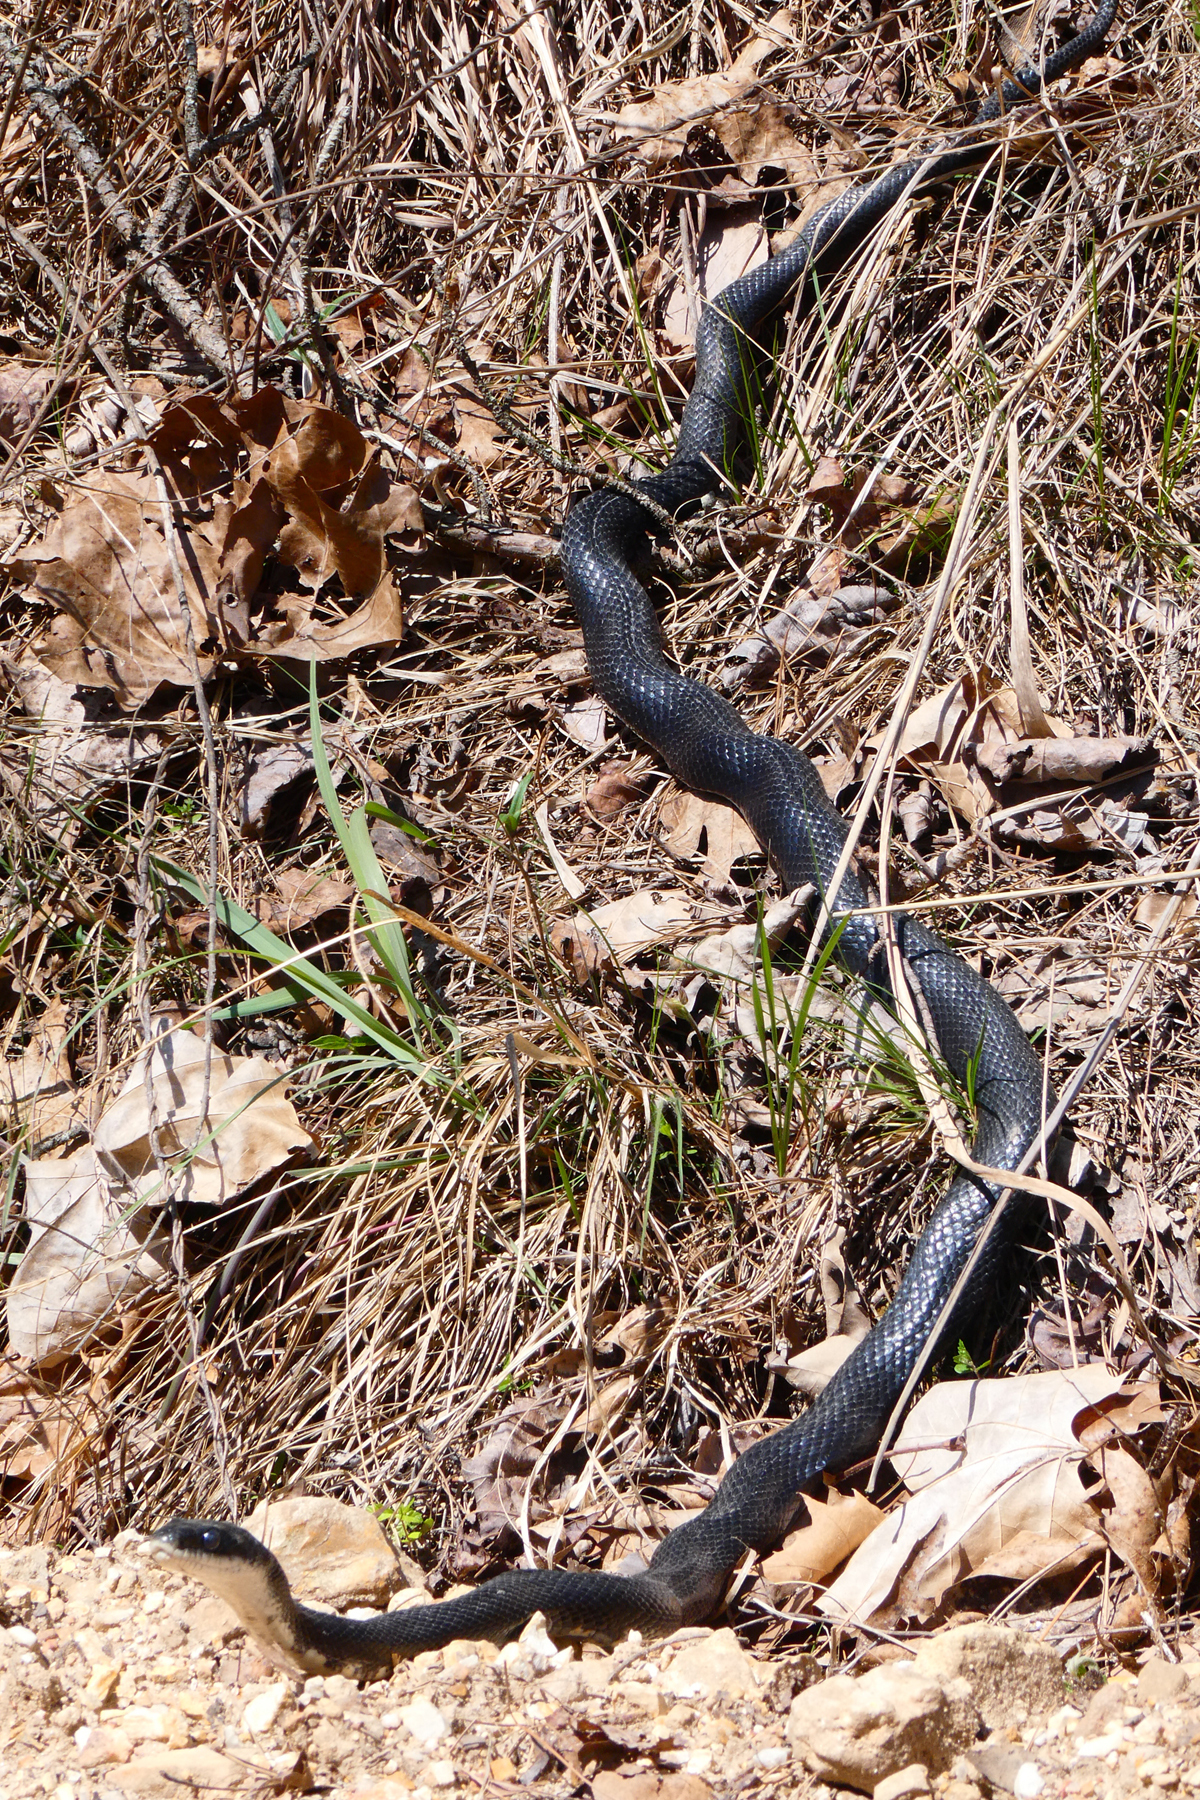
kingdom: Animalia
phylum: Chordata
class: Squamata
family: Colubridae
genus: Pantherophis
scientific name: Pantherophis obsoletus
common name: Black rat snake
